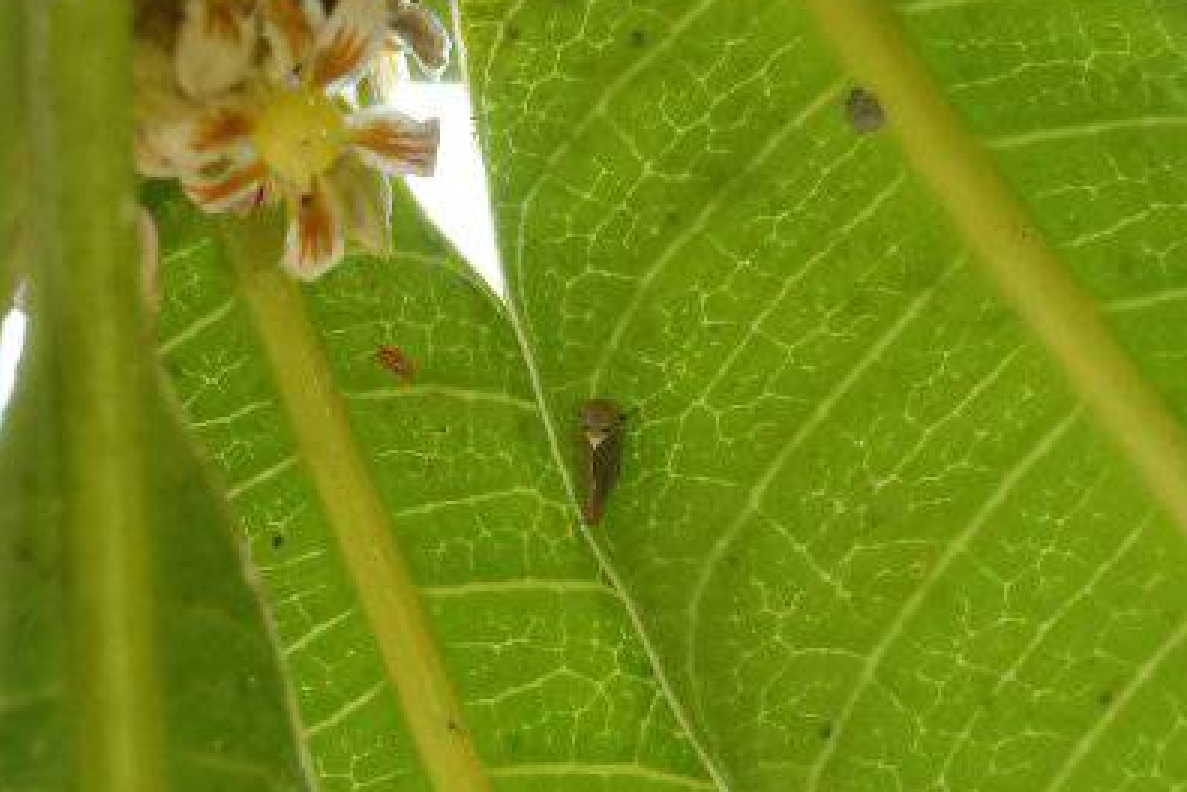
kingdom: Animalia
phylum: Arthropoda
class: Insecta
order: Hemiptera
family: Cicadellidae
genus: Idioscopus
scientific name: Idioscopus clypealis
